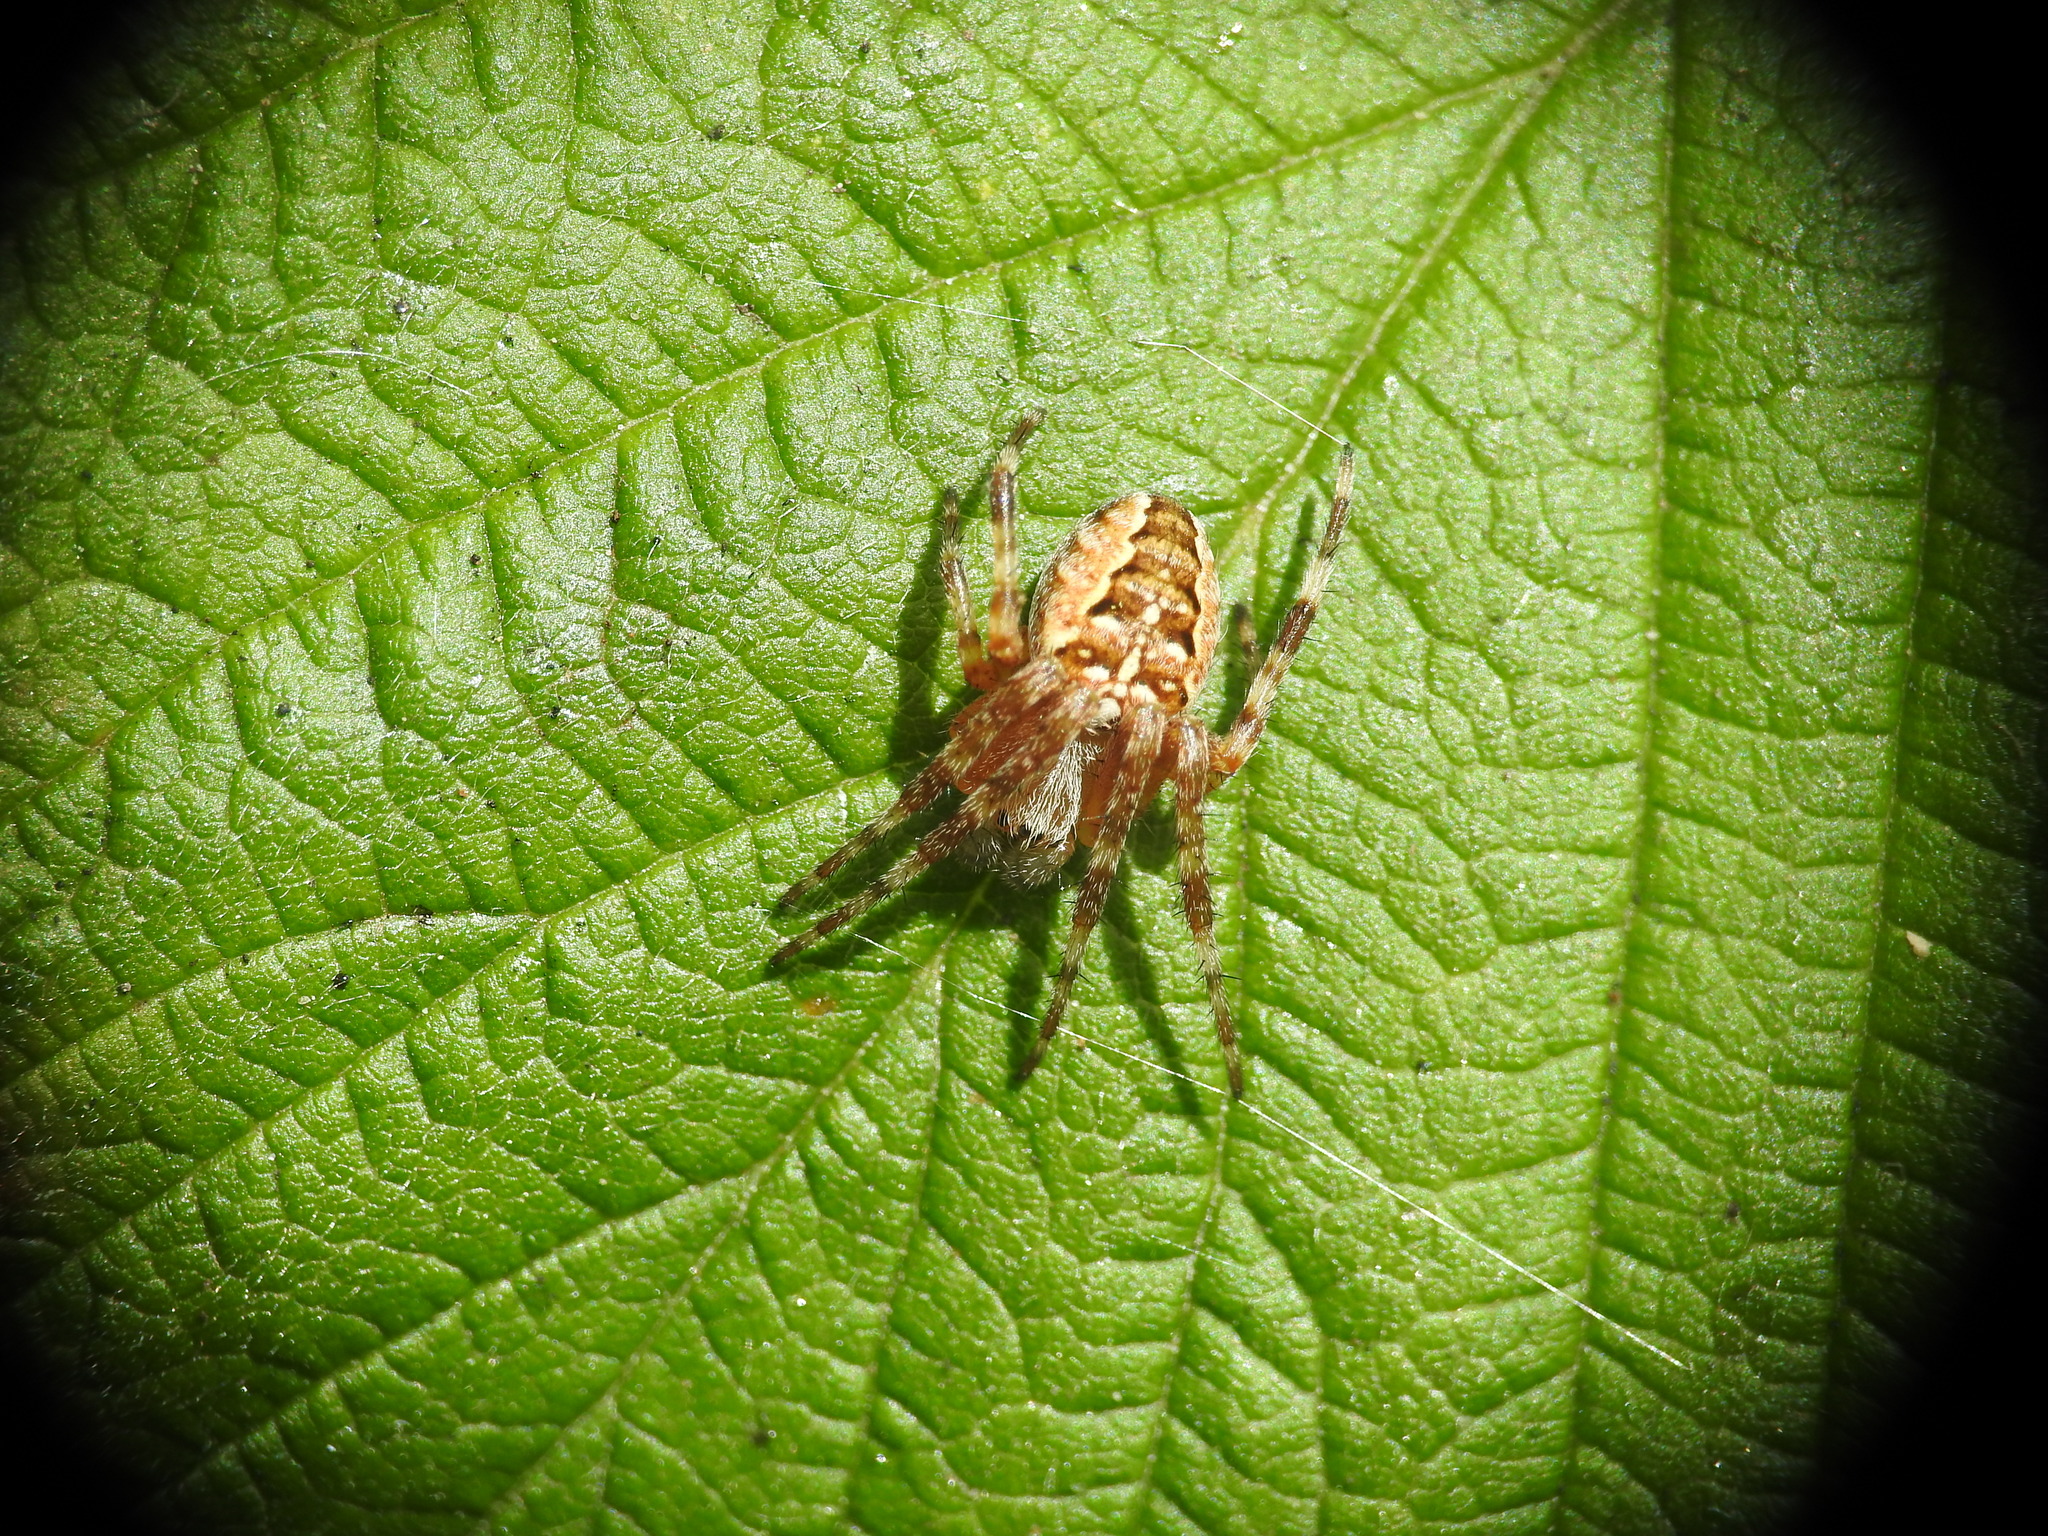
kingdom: Animalia
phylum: Arthropoda
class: Arachnida
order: Araneae
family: Araneidae
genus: Araneus
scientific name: Araneus diadematus
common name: Cross orbweaver
